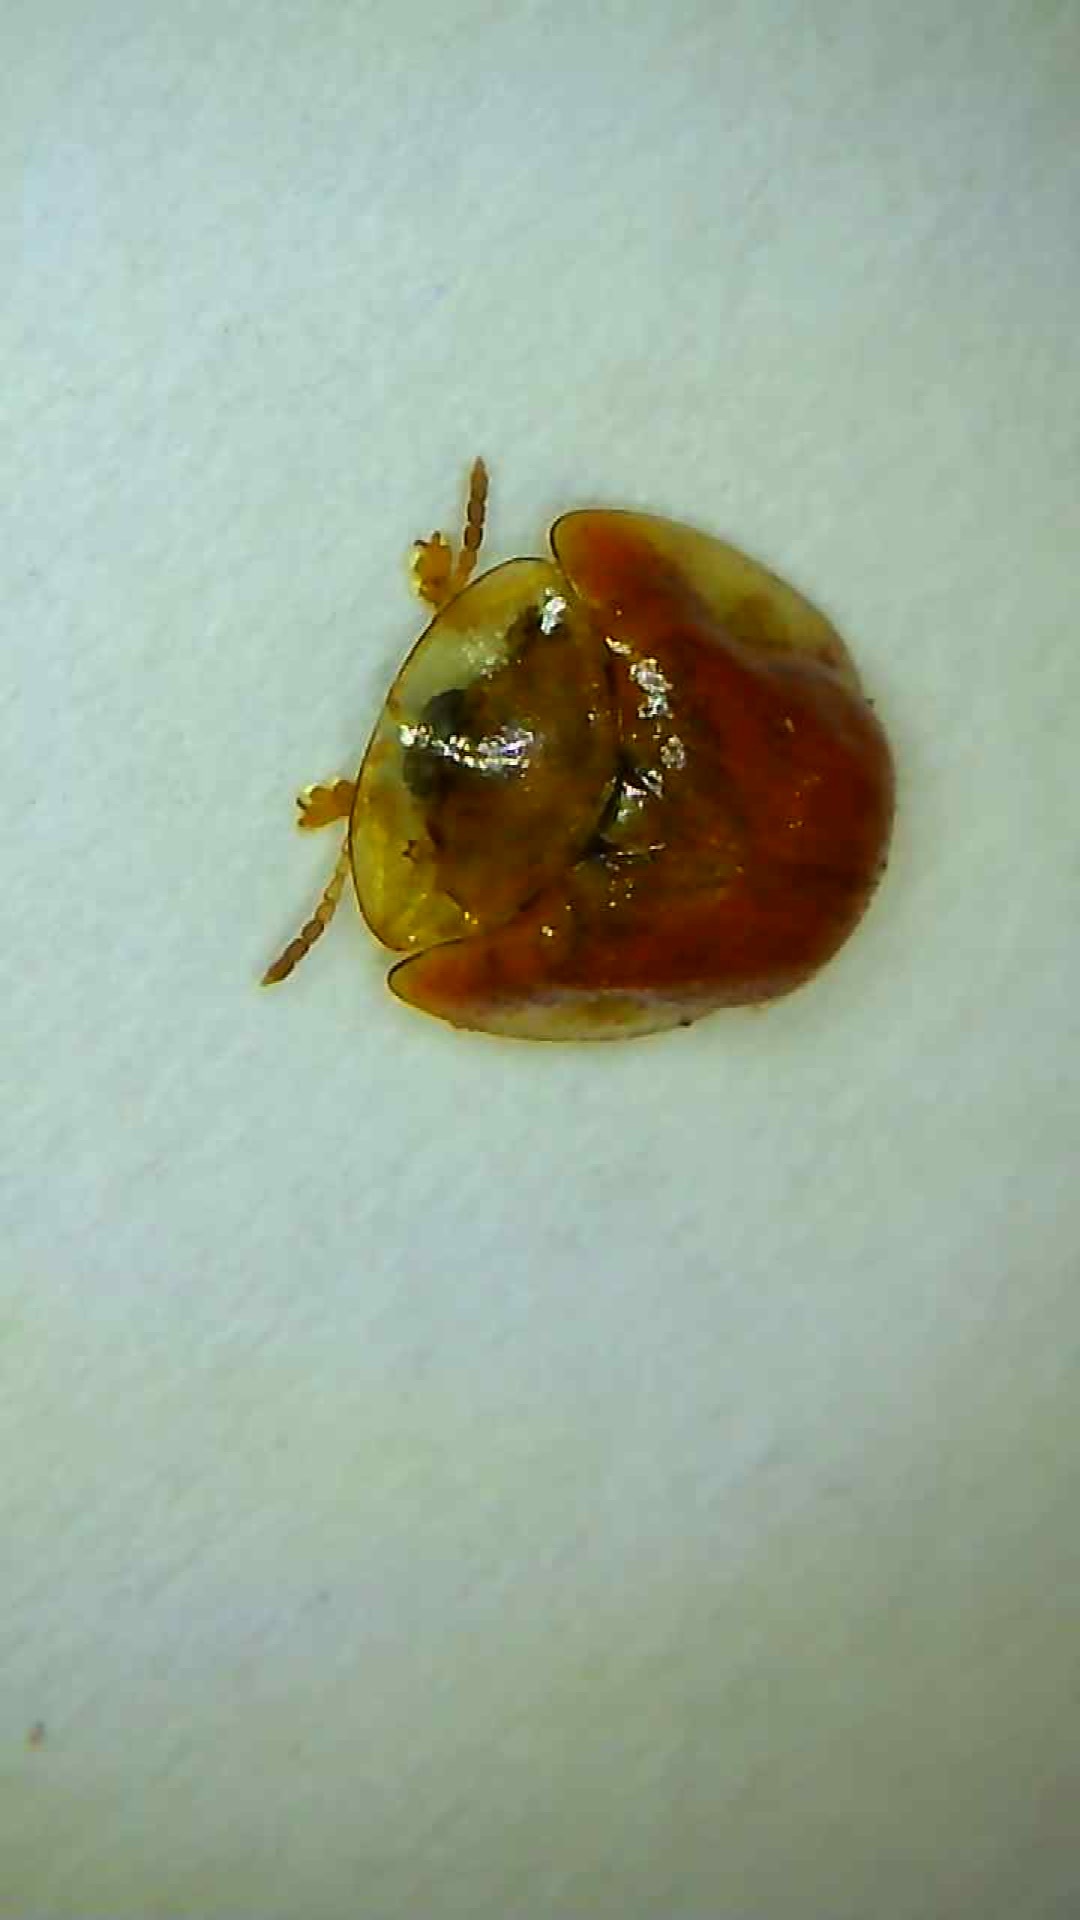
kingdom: Animalia
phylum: Arthropoda
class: Insecta
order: Coleoptera
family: Chrysomelidae
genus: Charidotella
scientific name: Charidotella purpurata
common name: Small orange tortoise beetle
